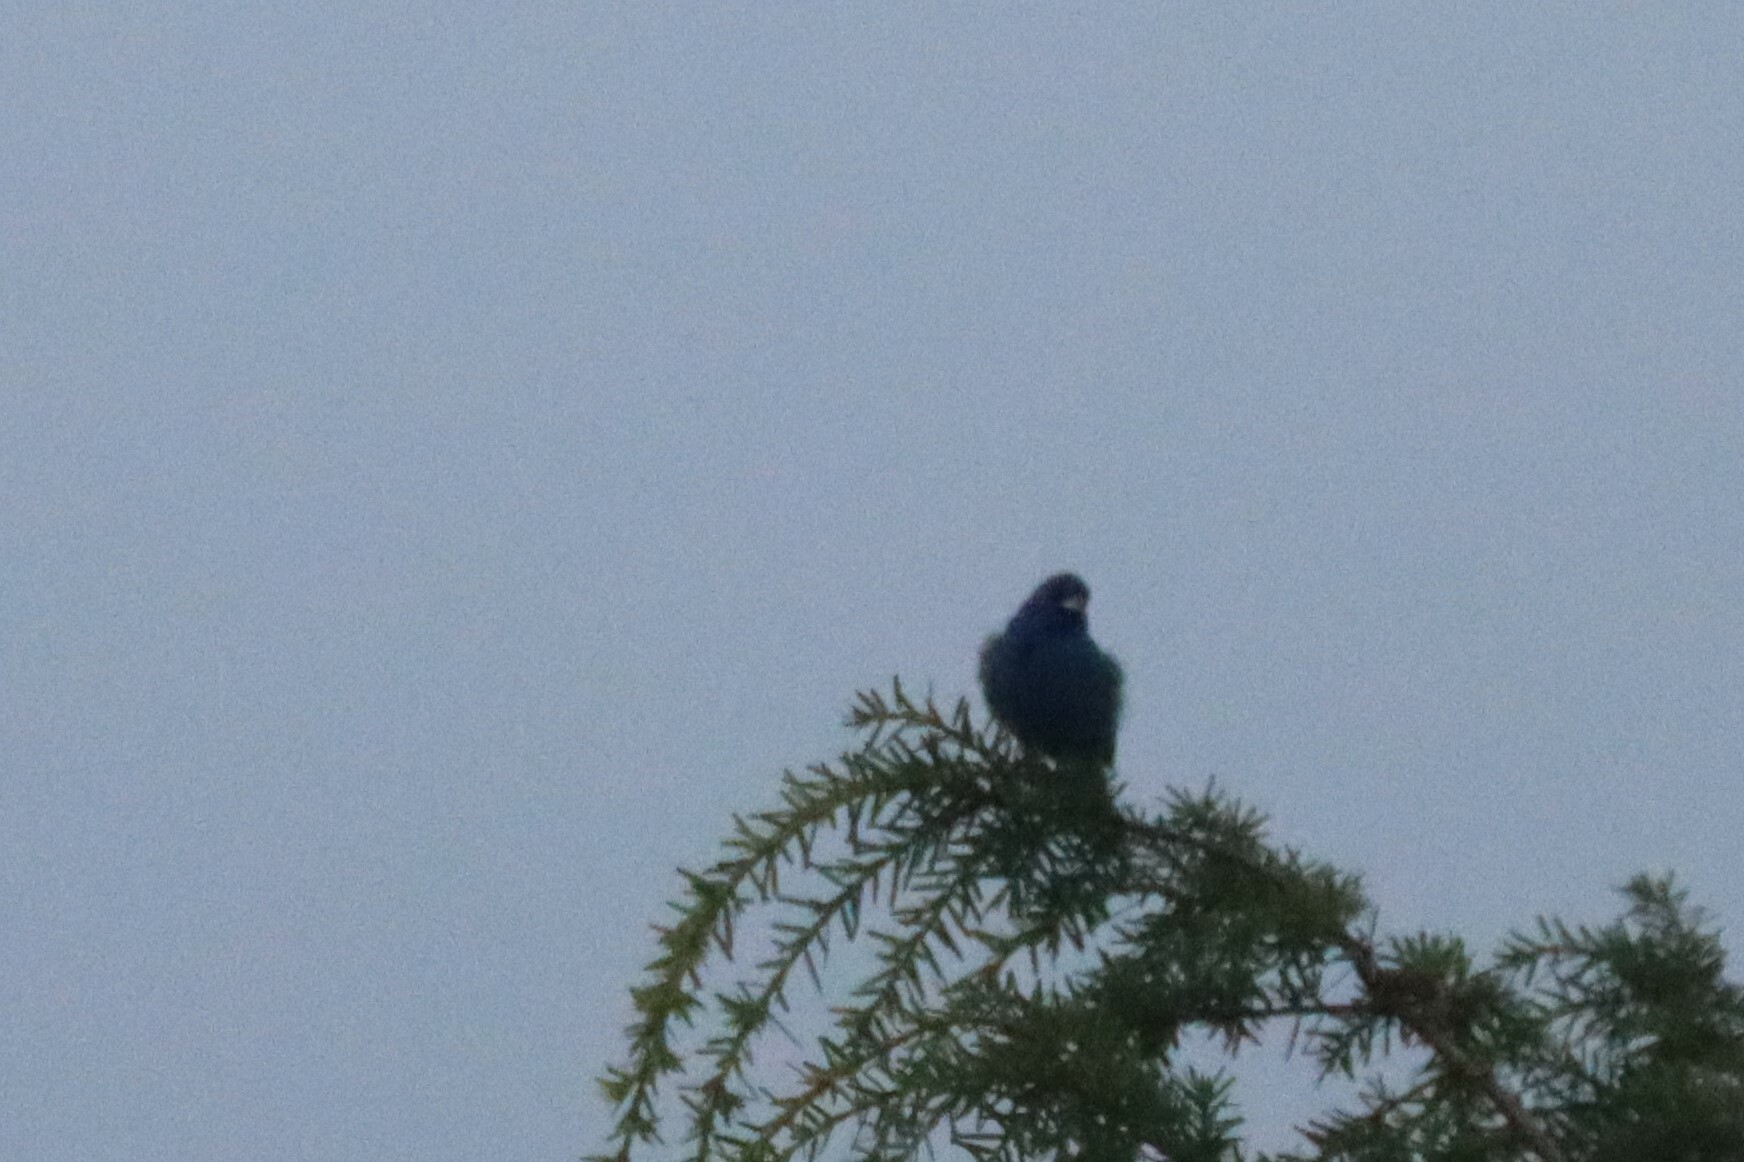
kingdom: Animalia
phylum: Chordata
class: Aves
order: Passeriformes
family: Cardinalidae
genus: Passerina
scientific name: Passerina cyanea
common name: Indigo bunting
